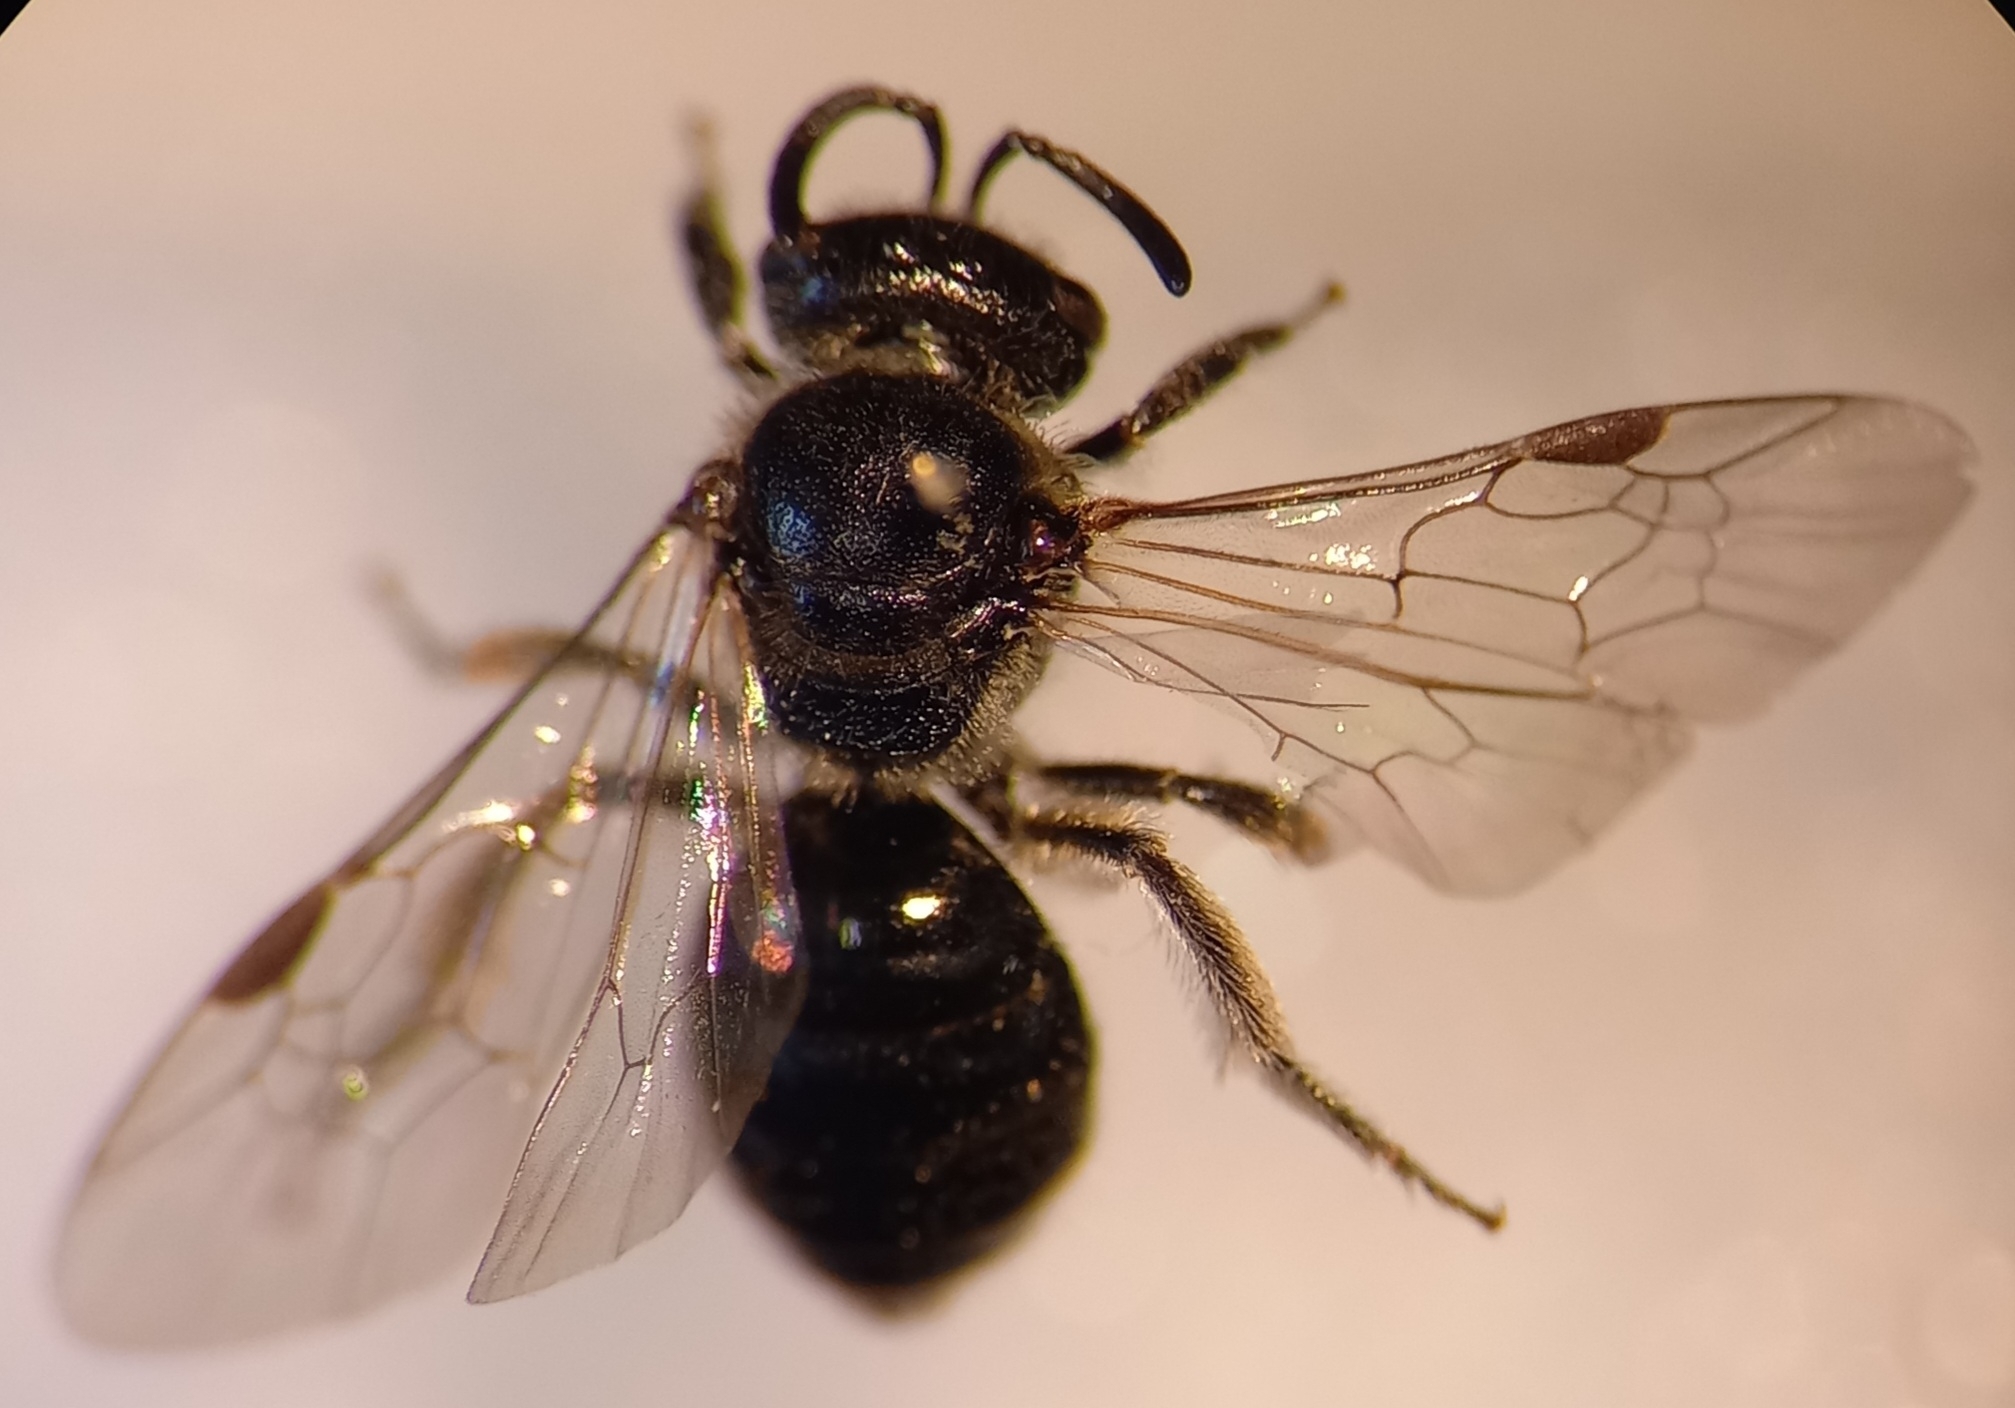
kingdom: Animalia
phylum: Arthropoda
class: Insecta
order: Hymenoptera
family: Halictidae
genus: Lasioglossum
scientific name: Lasioglossum pygmaeum
